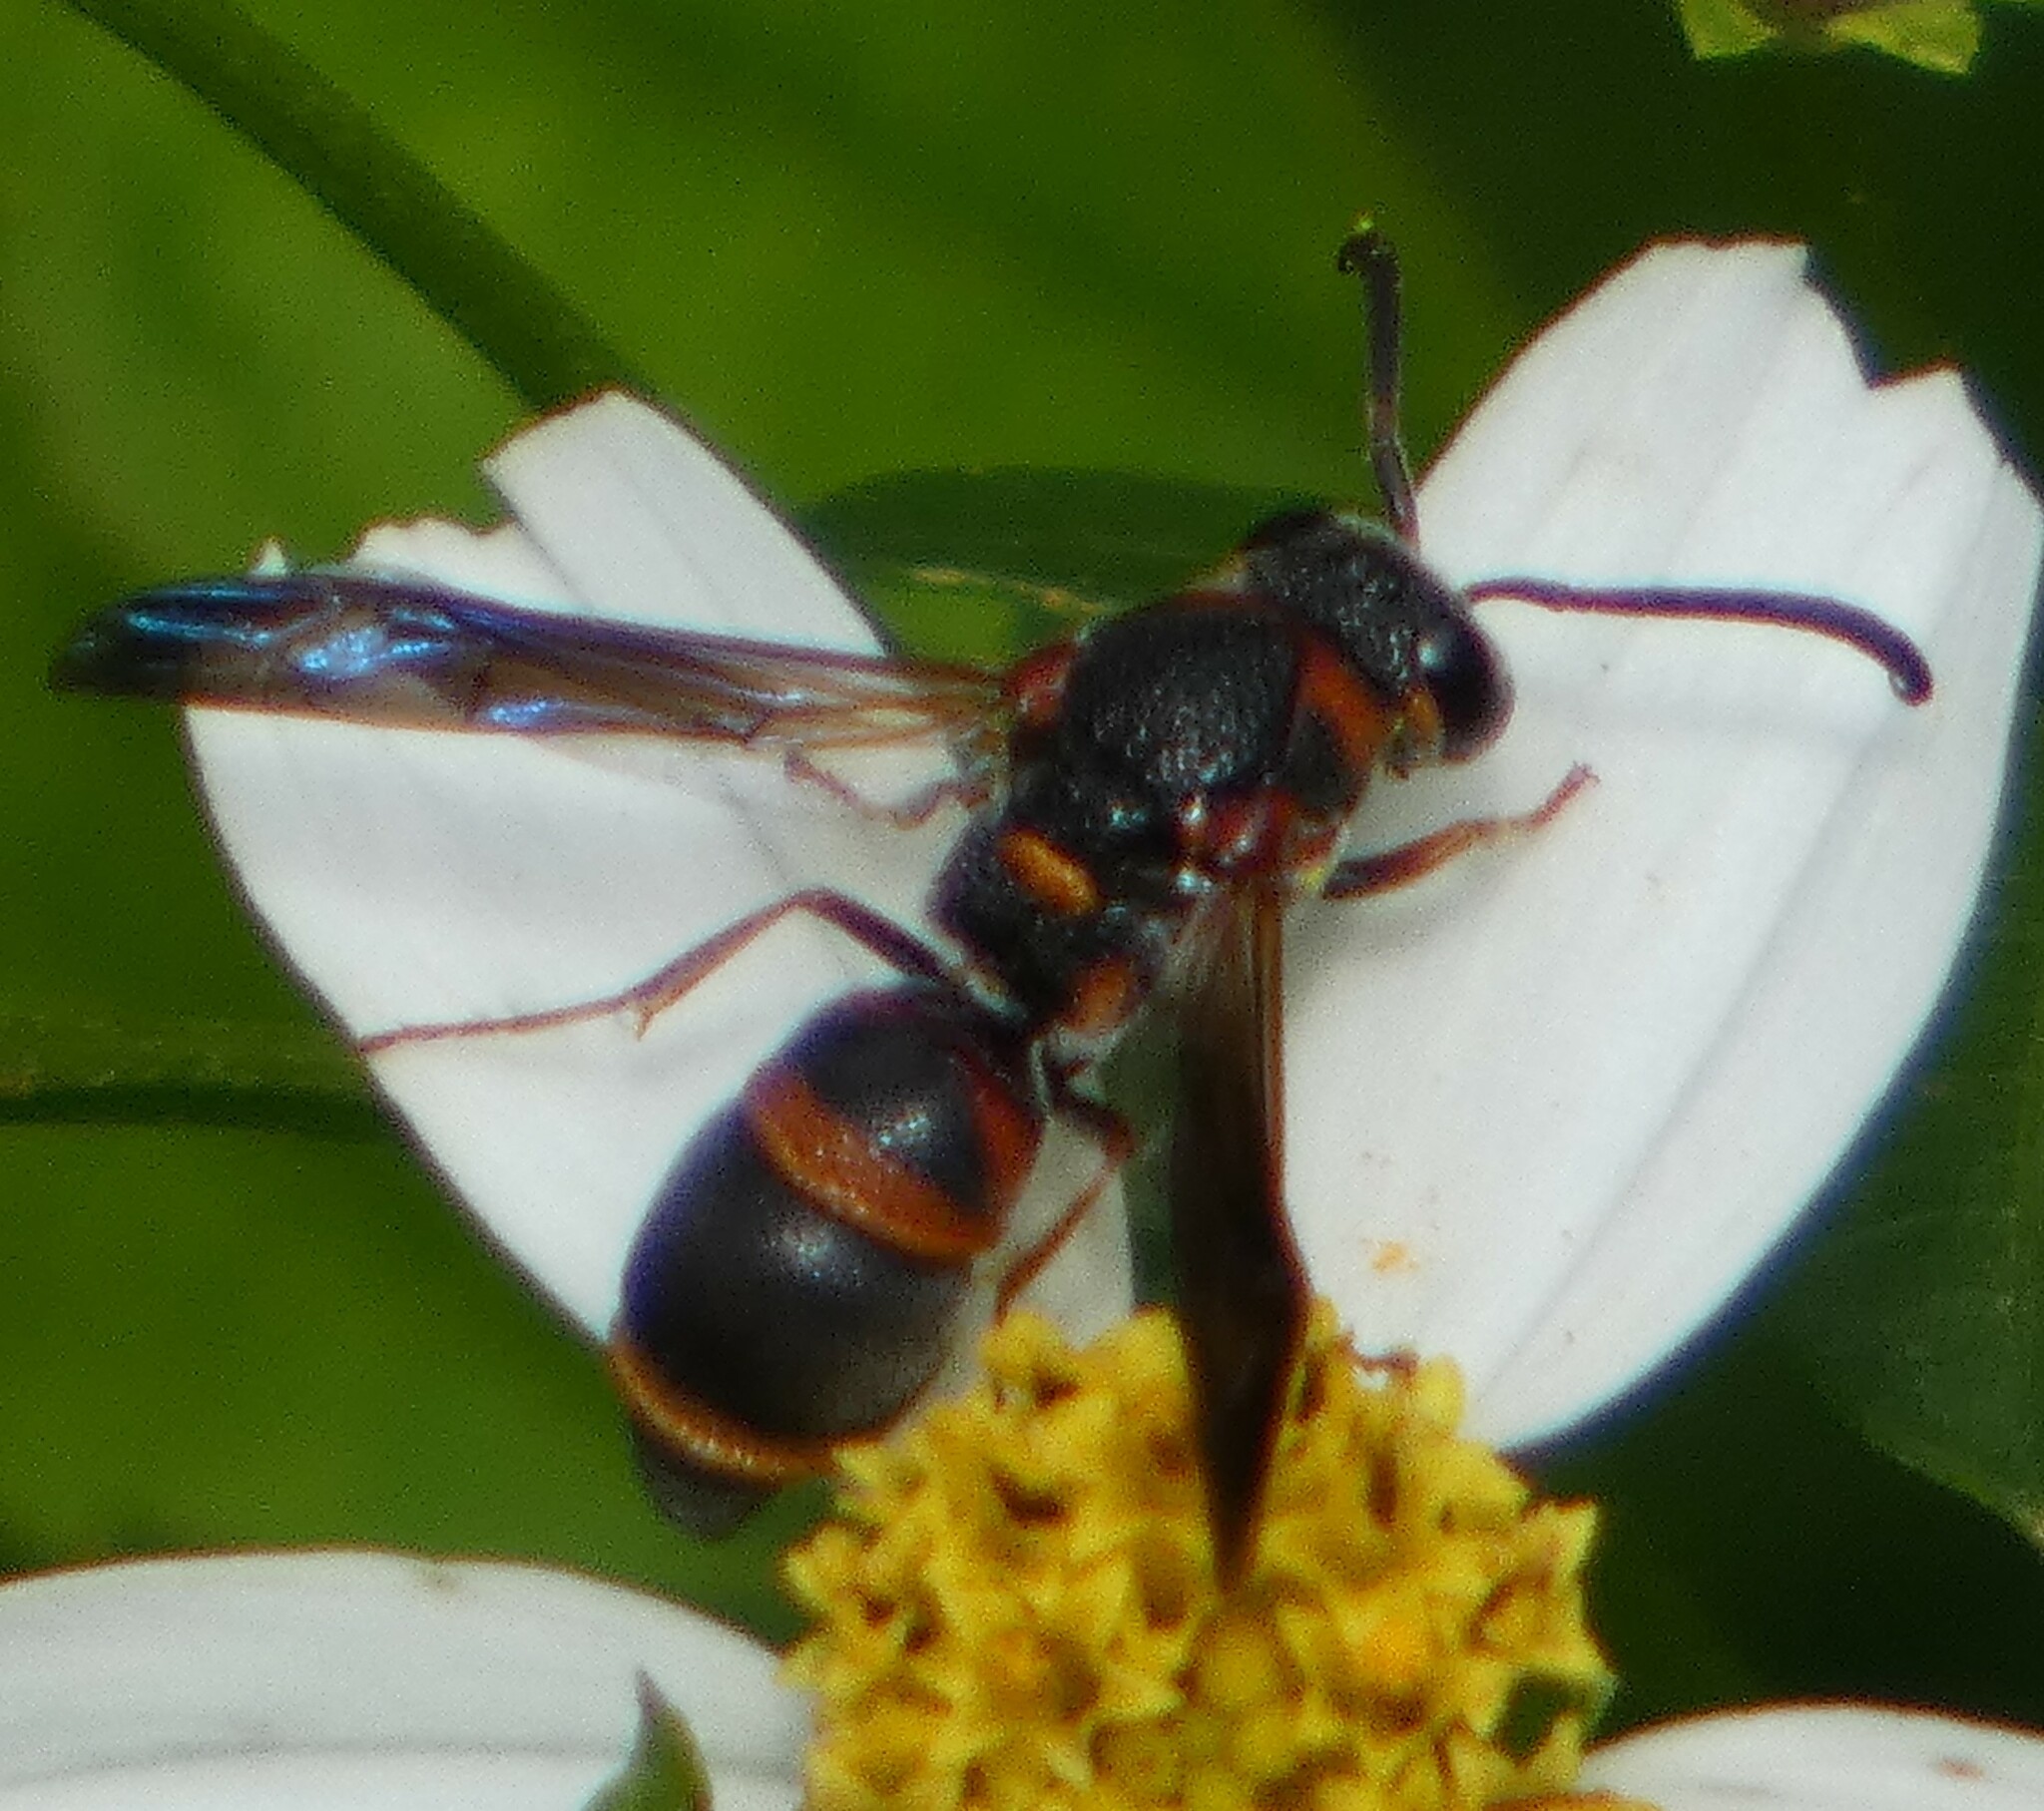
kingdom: Animalia
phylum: Arthropoda
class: Insecta
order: Hymenoptera
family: Eumenidae
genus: Parancistrocerus
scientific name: Parancistrocerus fulvipes
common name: Potter wasp
